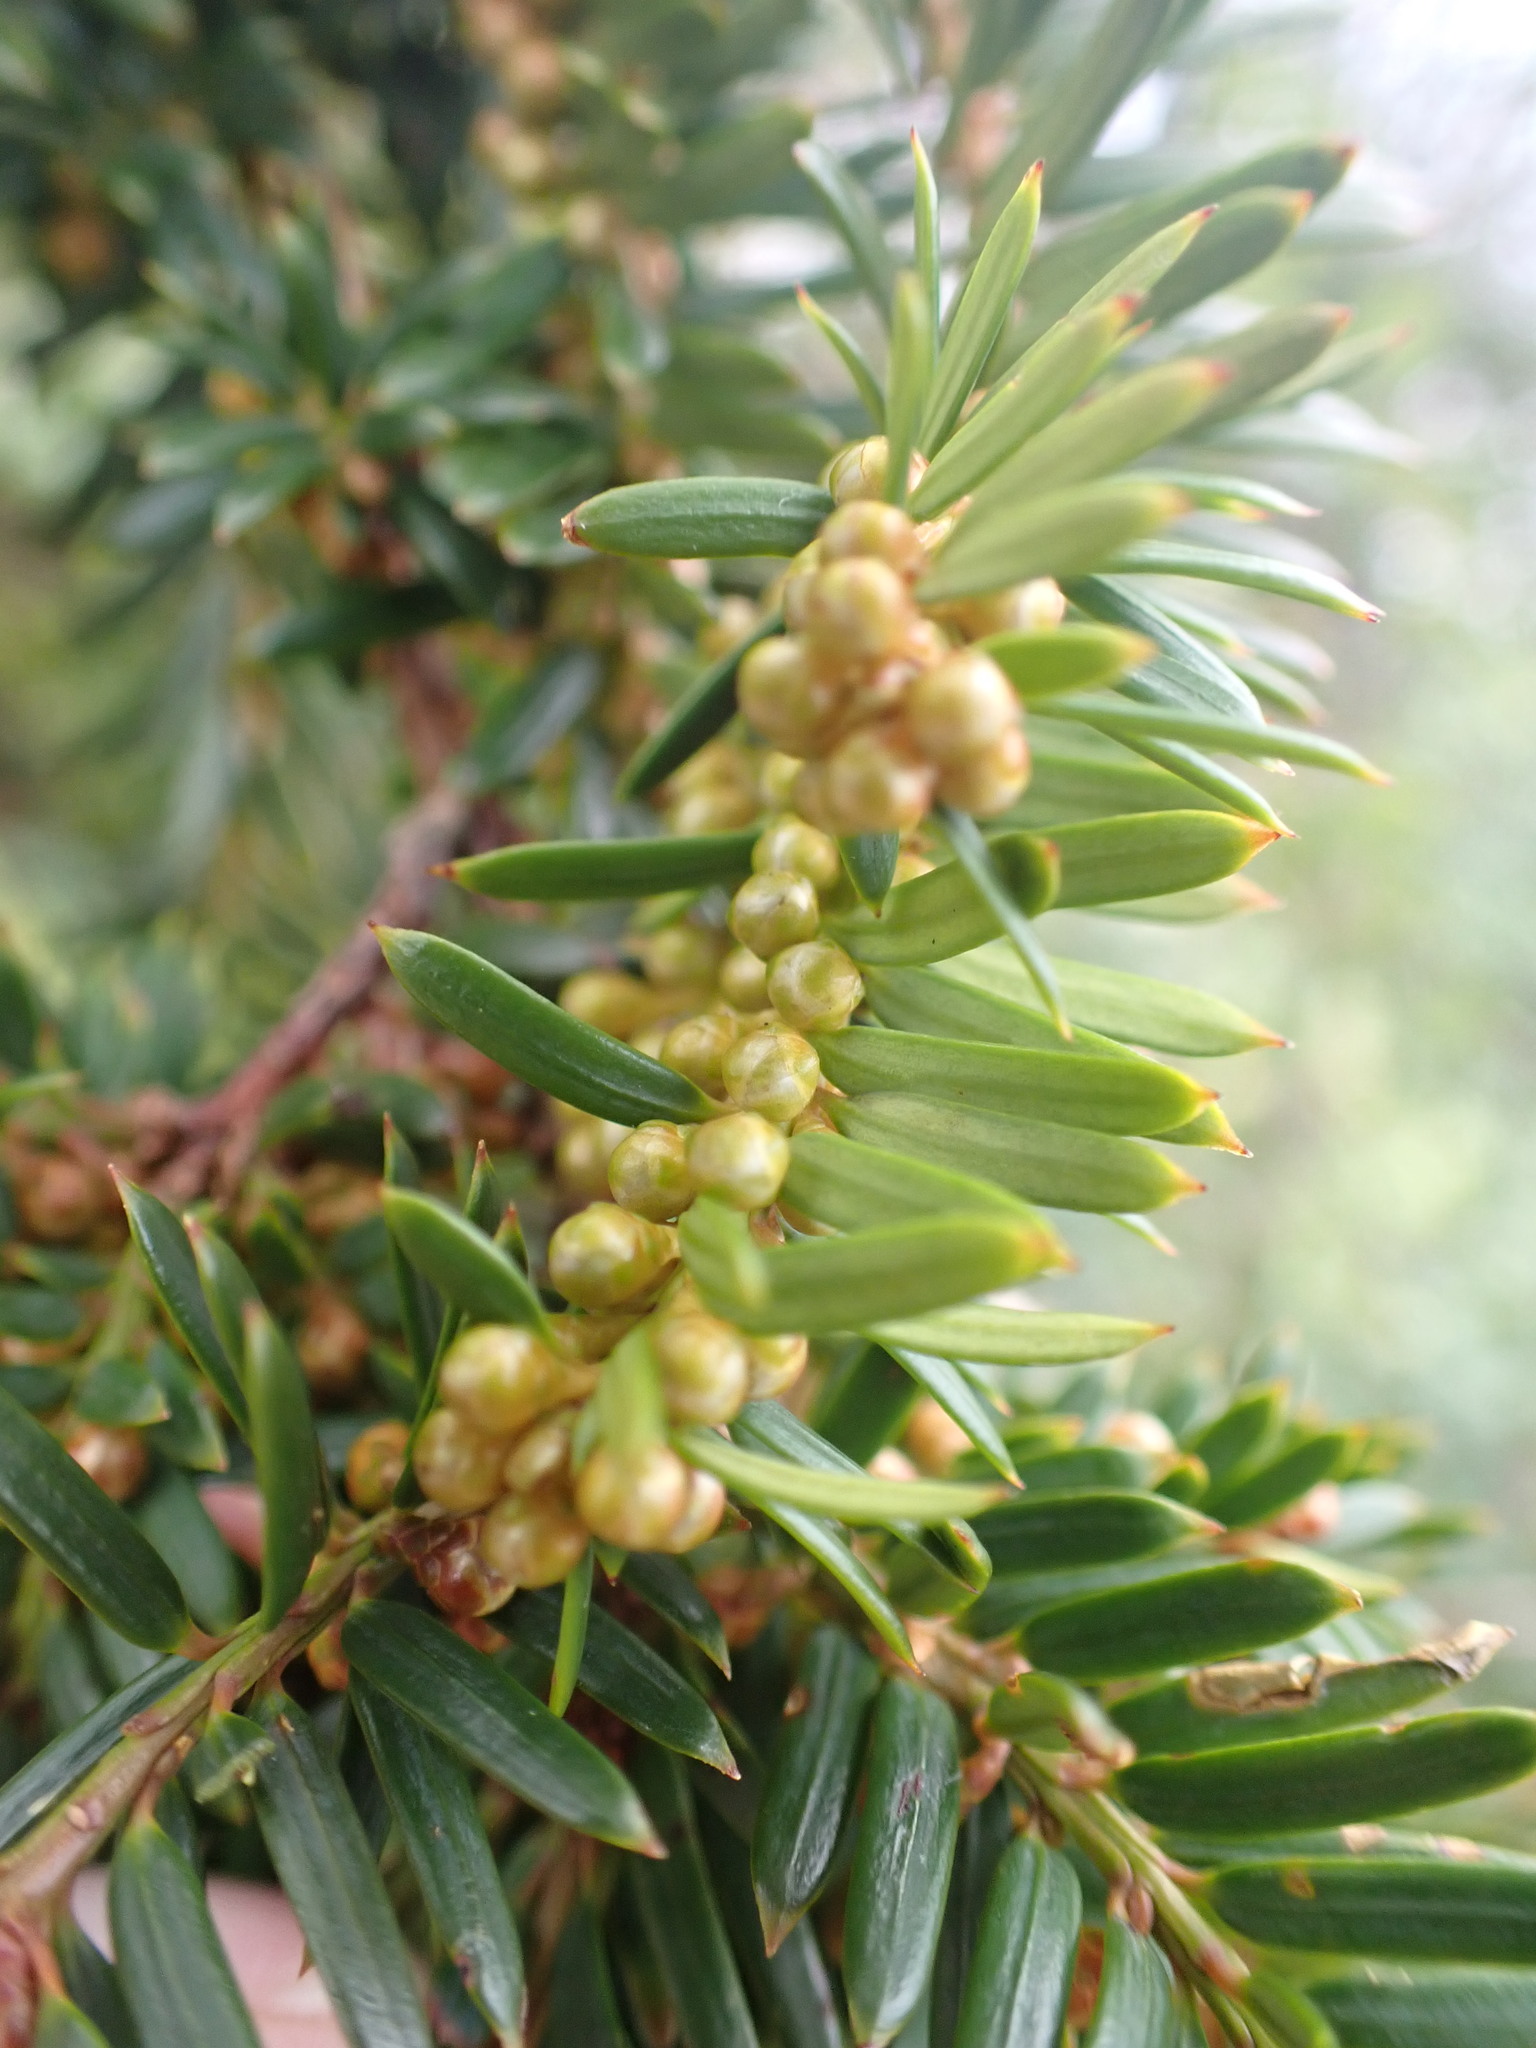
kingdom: Plantae
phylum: Tracheophyta
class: Pinopsida
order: Pinales
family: Taxaceae
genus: Taxus
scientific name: Taxus baccata
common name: Yew
